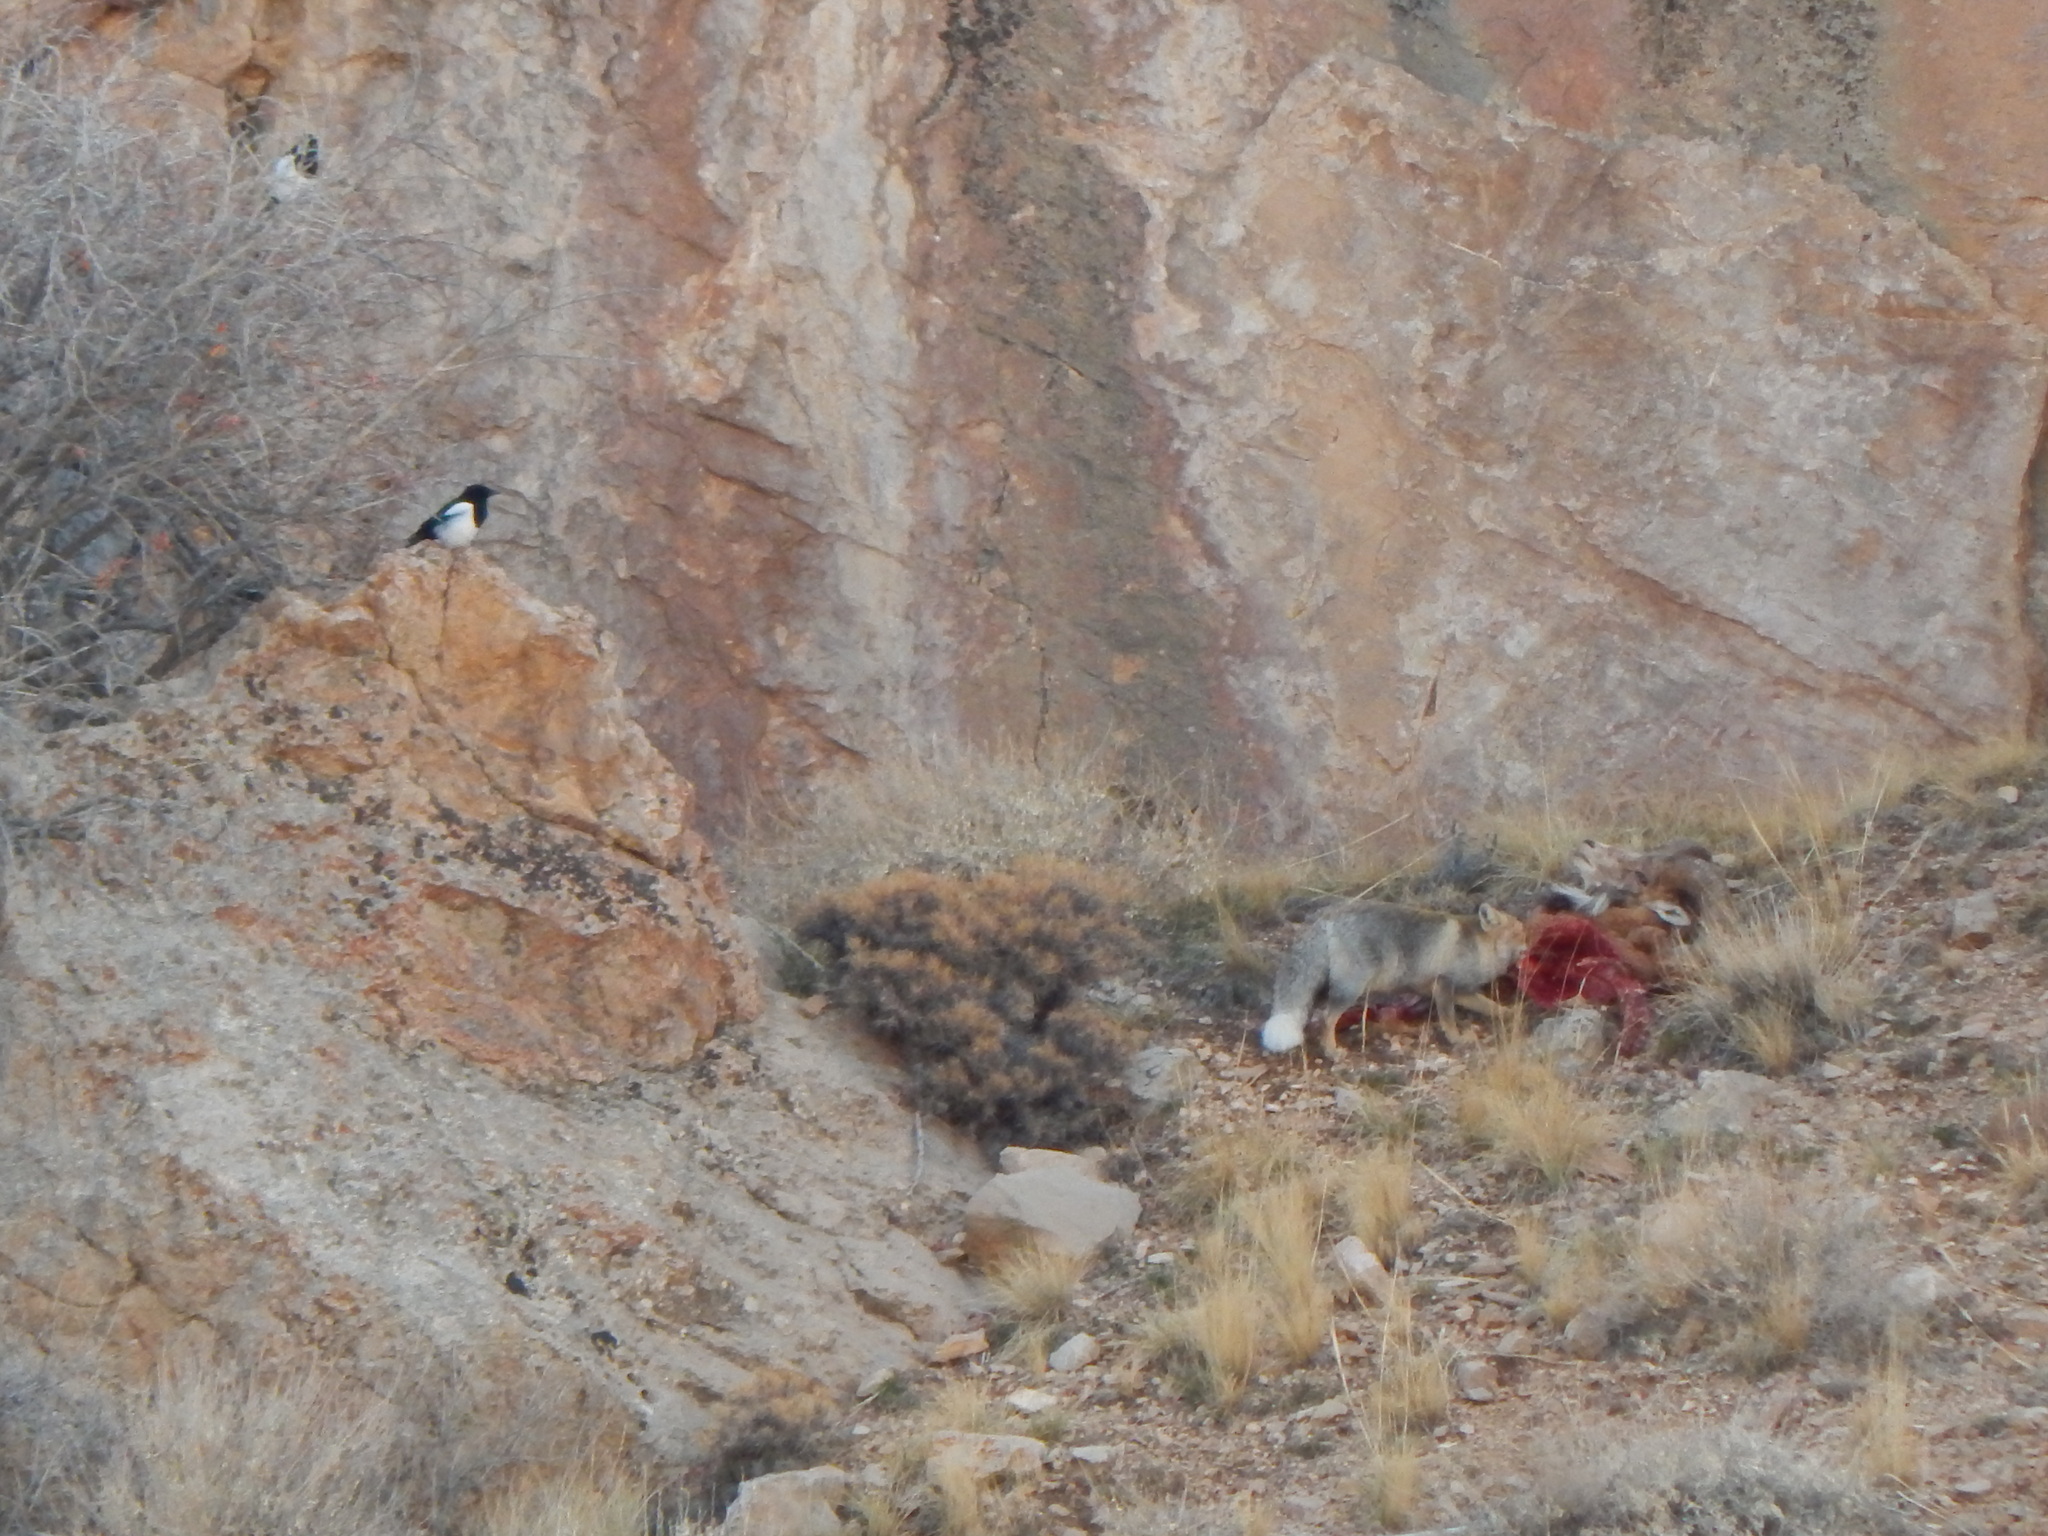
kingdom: Animalia
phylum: Chordata
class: Mammalia
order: Carnivora
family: Canidae
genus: Vulpes
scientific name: Vulpes vulpes
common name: Red fox
